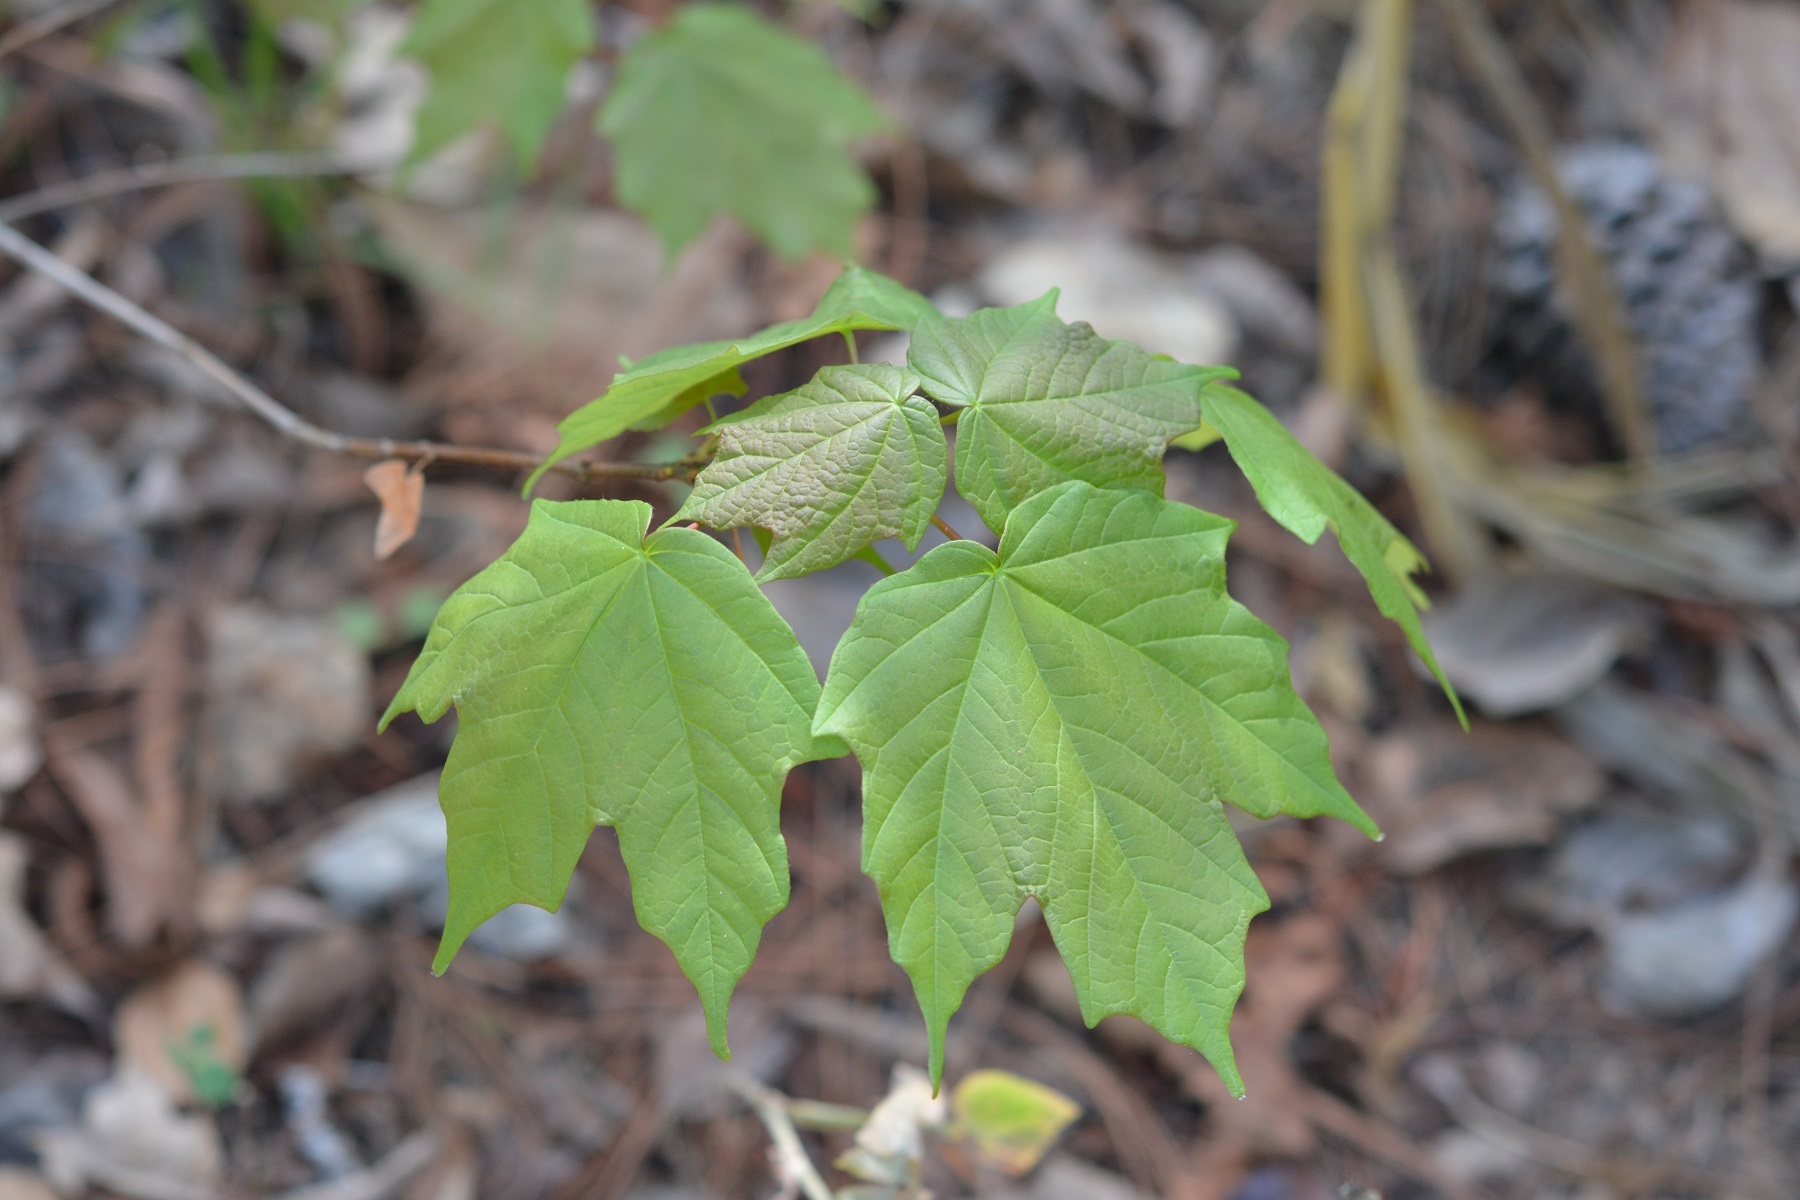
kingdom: Plantae
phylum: Tracheophyta
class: Magnoliopsida
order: Sapindales
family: Sapindaceae
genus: Acer
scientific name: Acer skutchii
